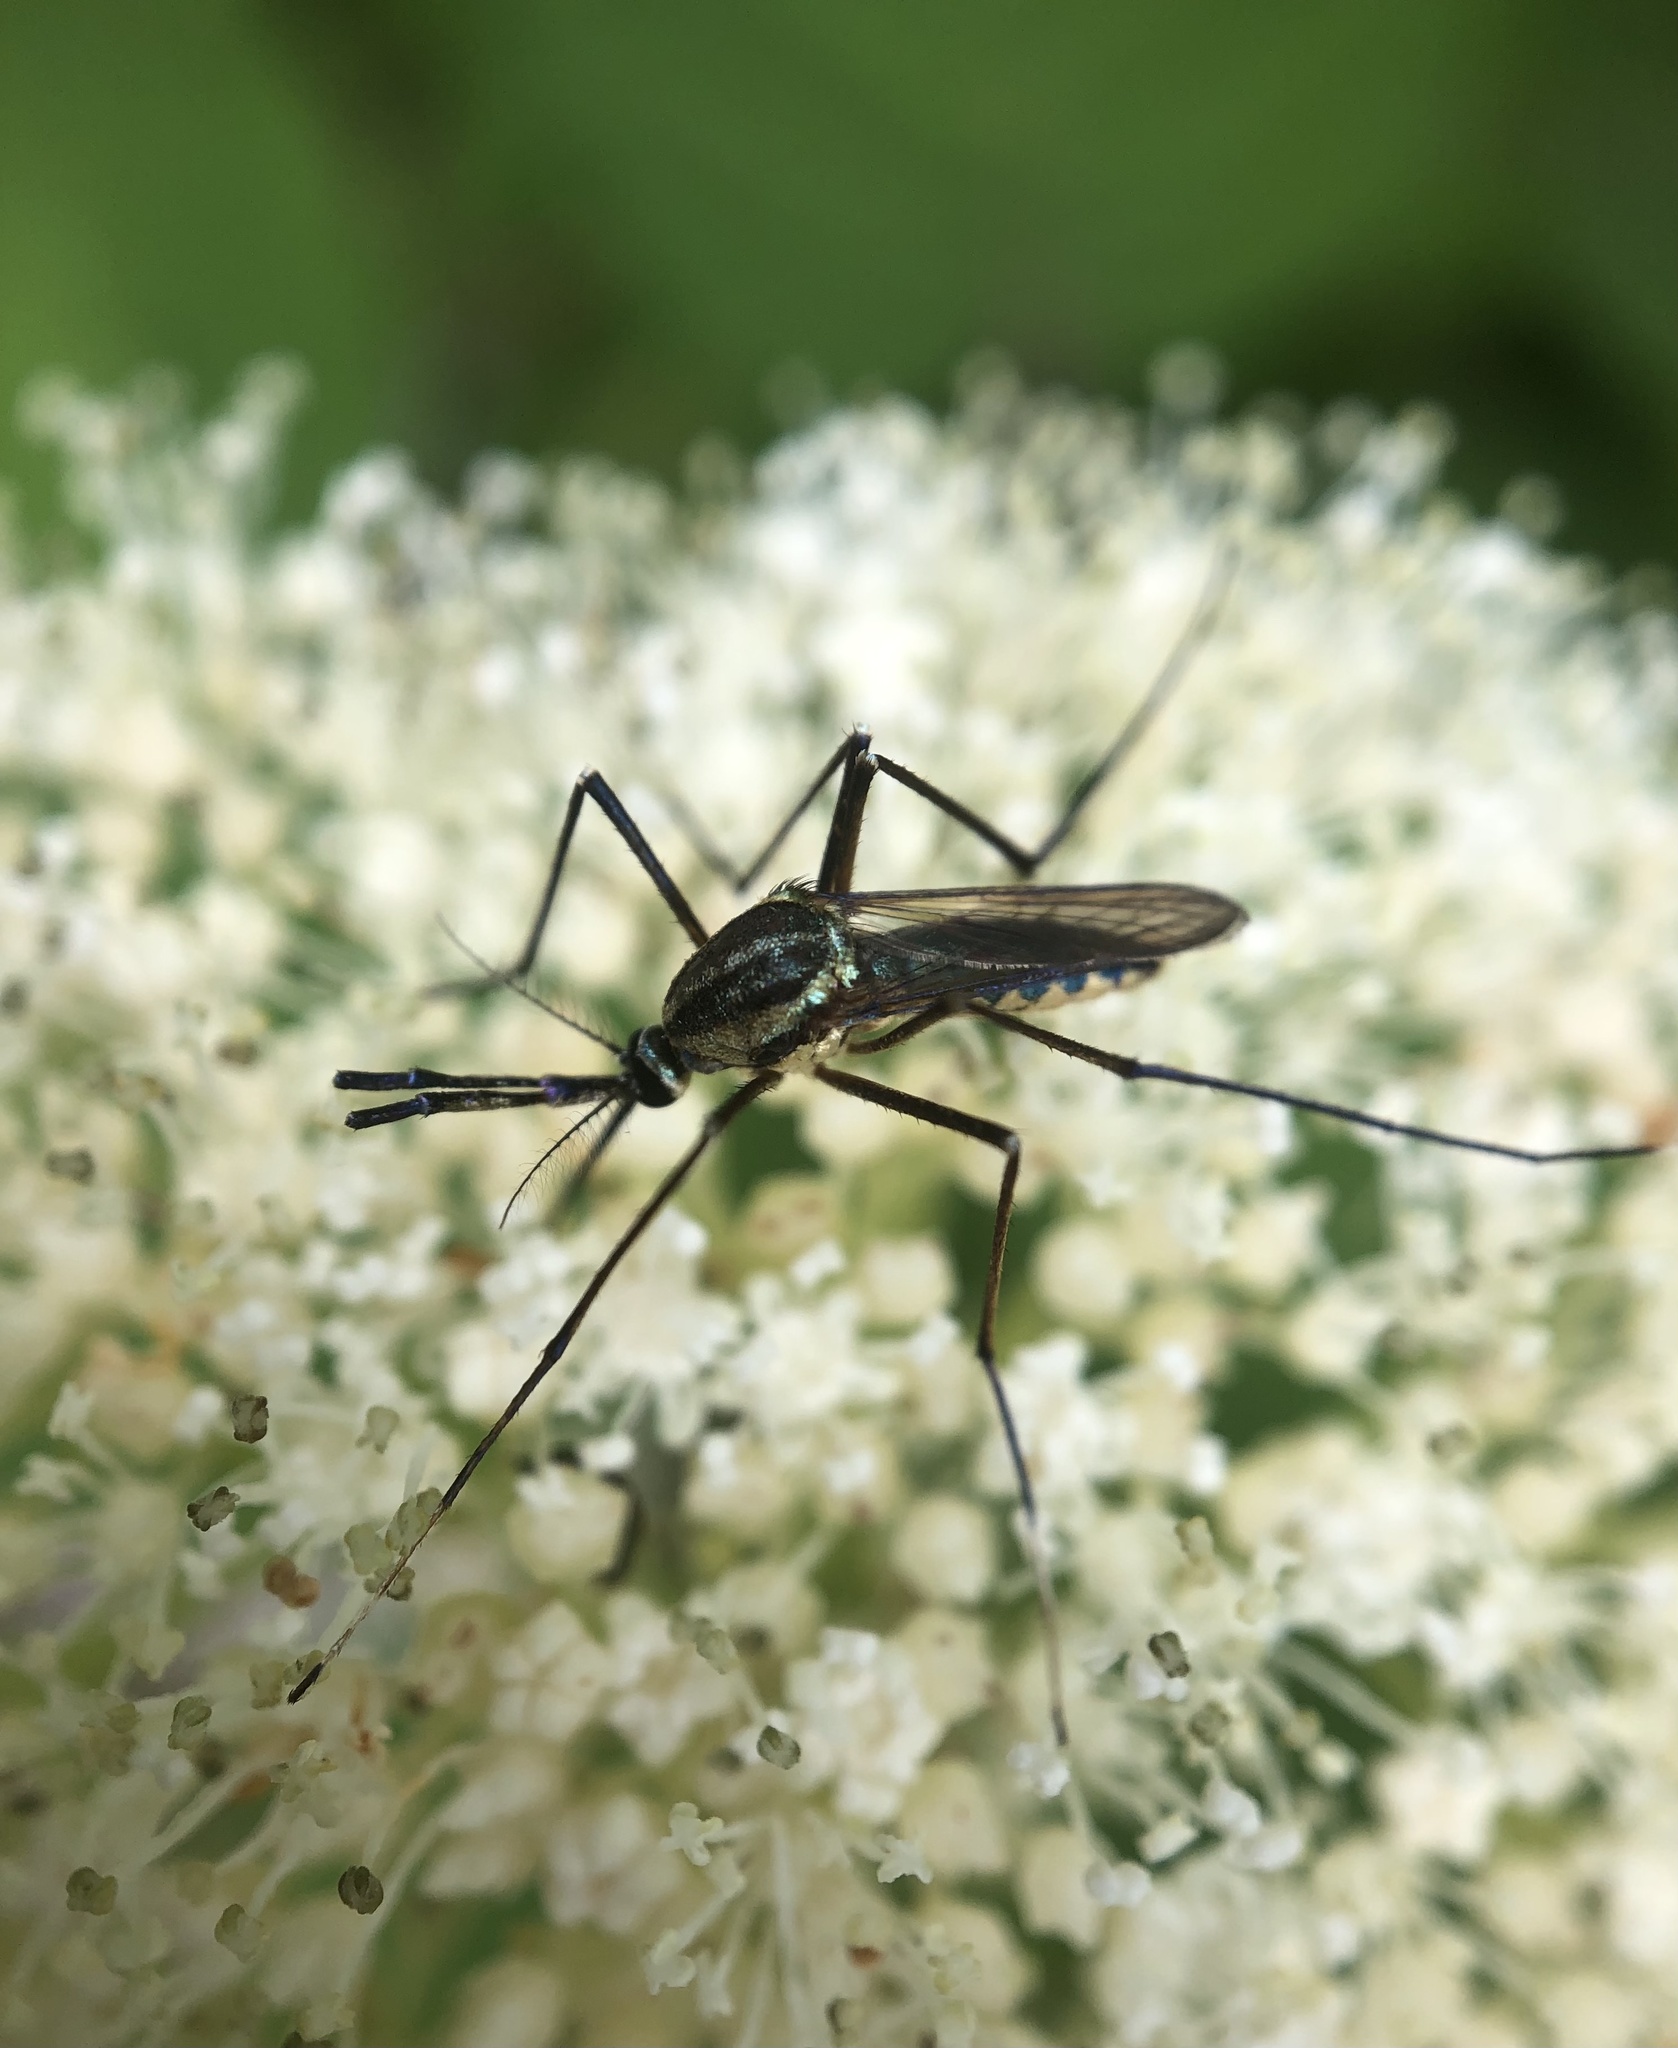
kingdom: Animalia
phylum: Arthropoda
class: Insecta
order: Diptera
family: Culicidae
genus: Toxorhynchites
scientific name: Toxorhynchites rutilus
